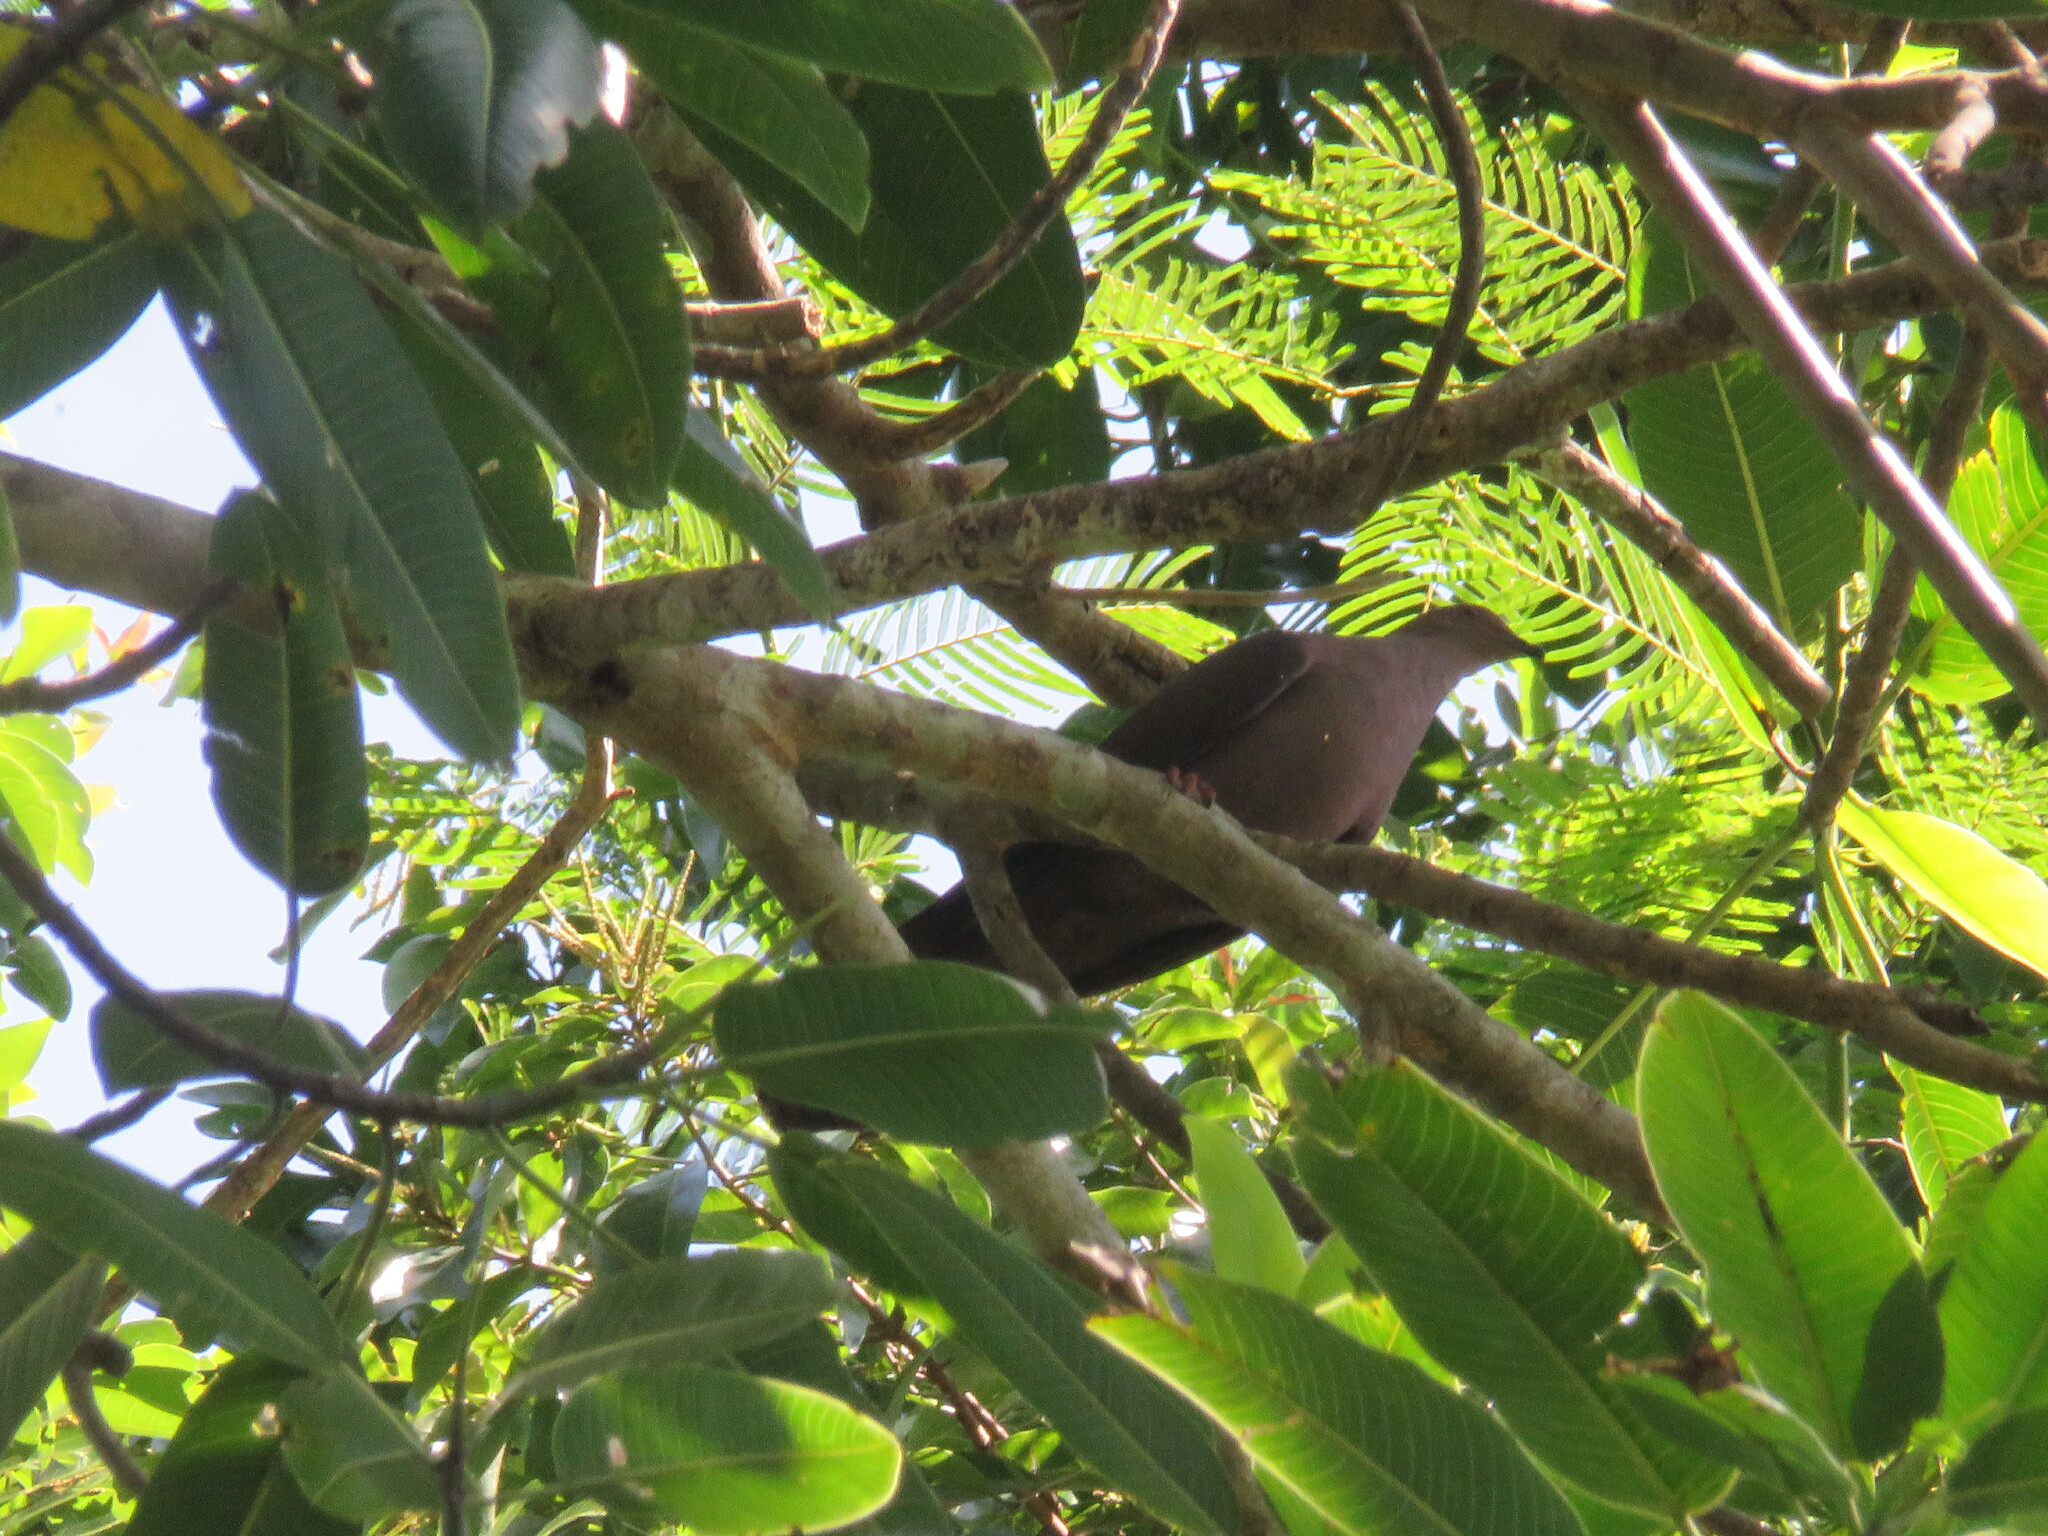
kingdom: Animalia
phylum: Chordata
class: Aves
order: Columbiformes
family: Columbidae
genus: Patagioenas
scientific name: Patagioenas subvinacea
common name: Ruddy pigeon
